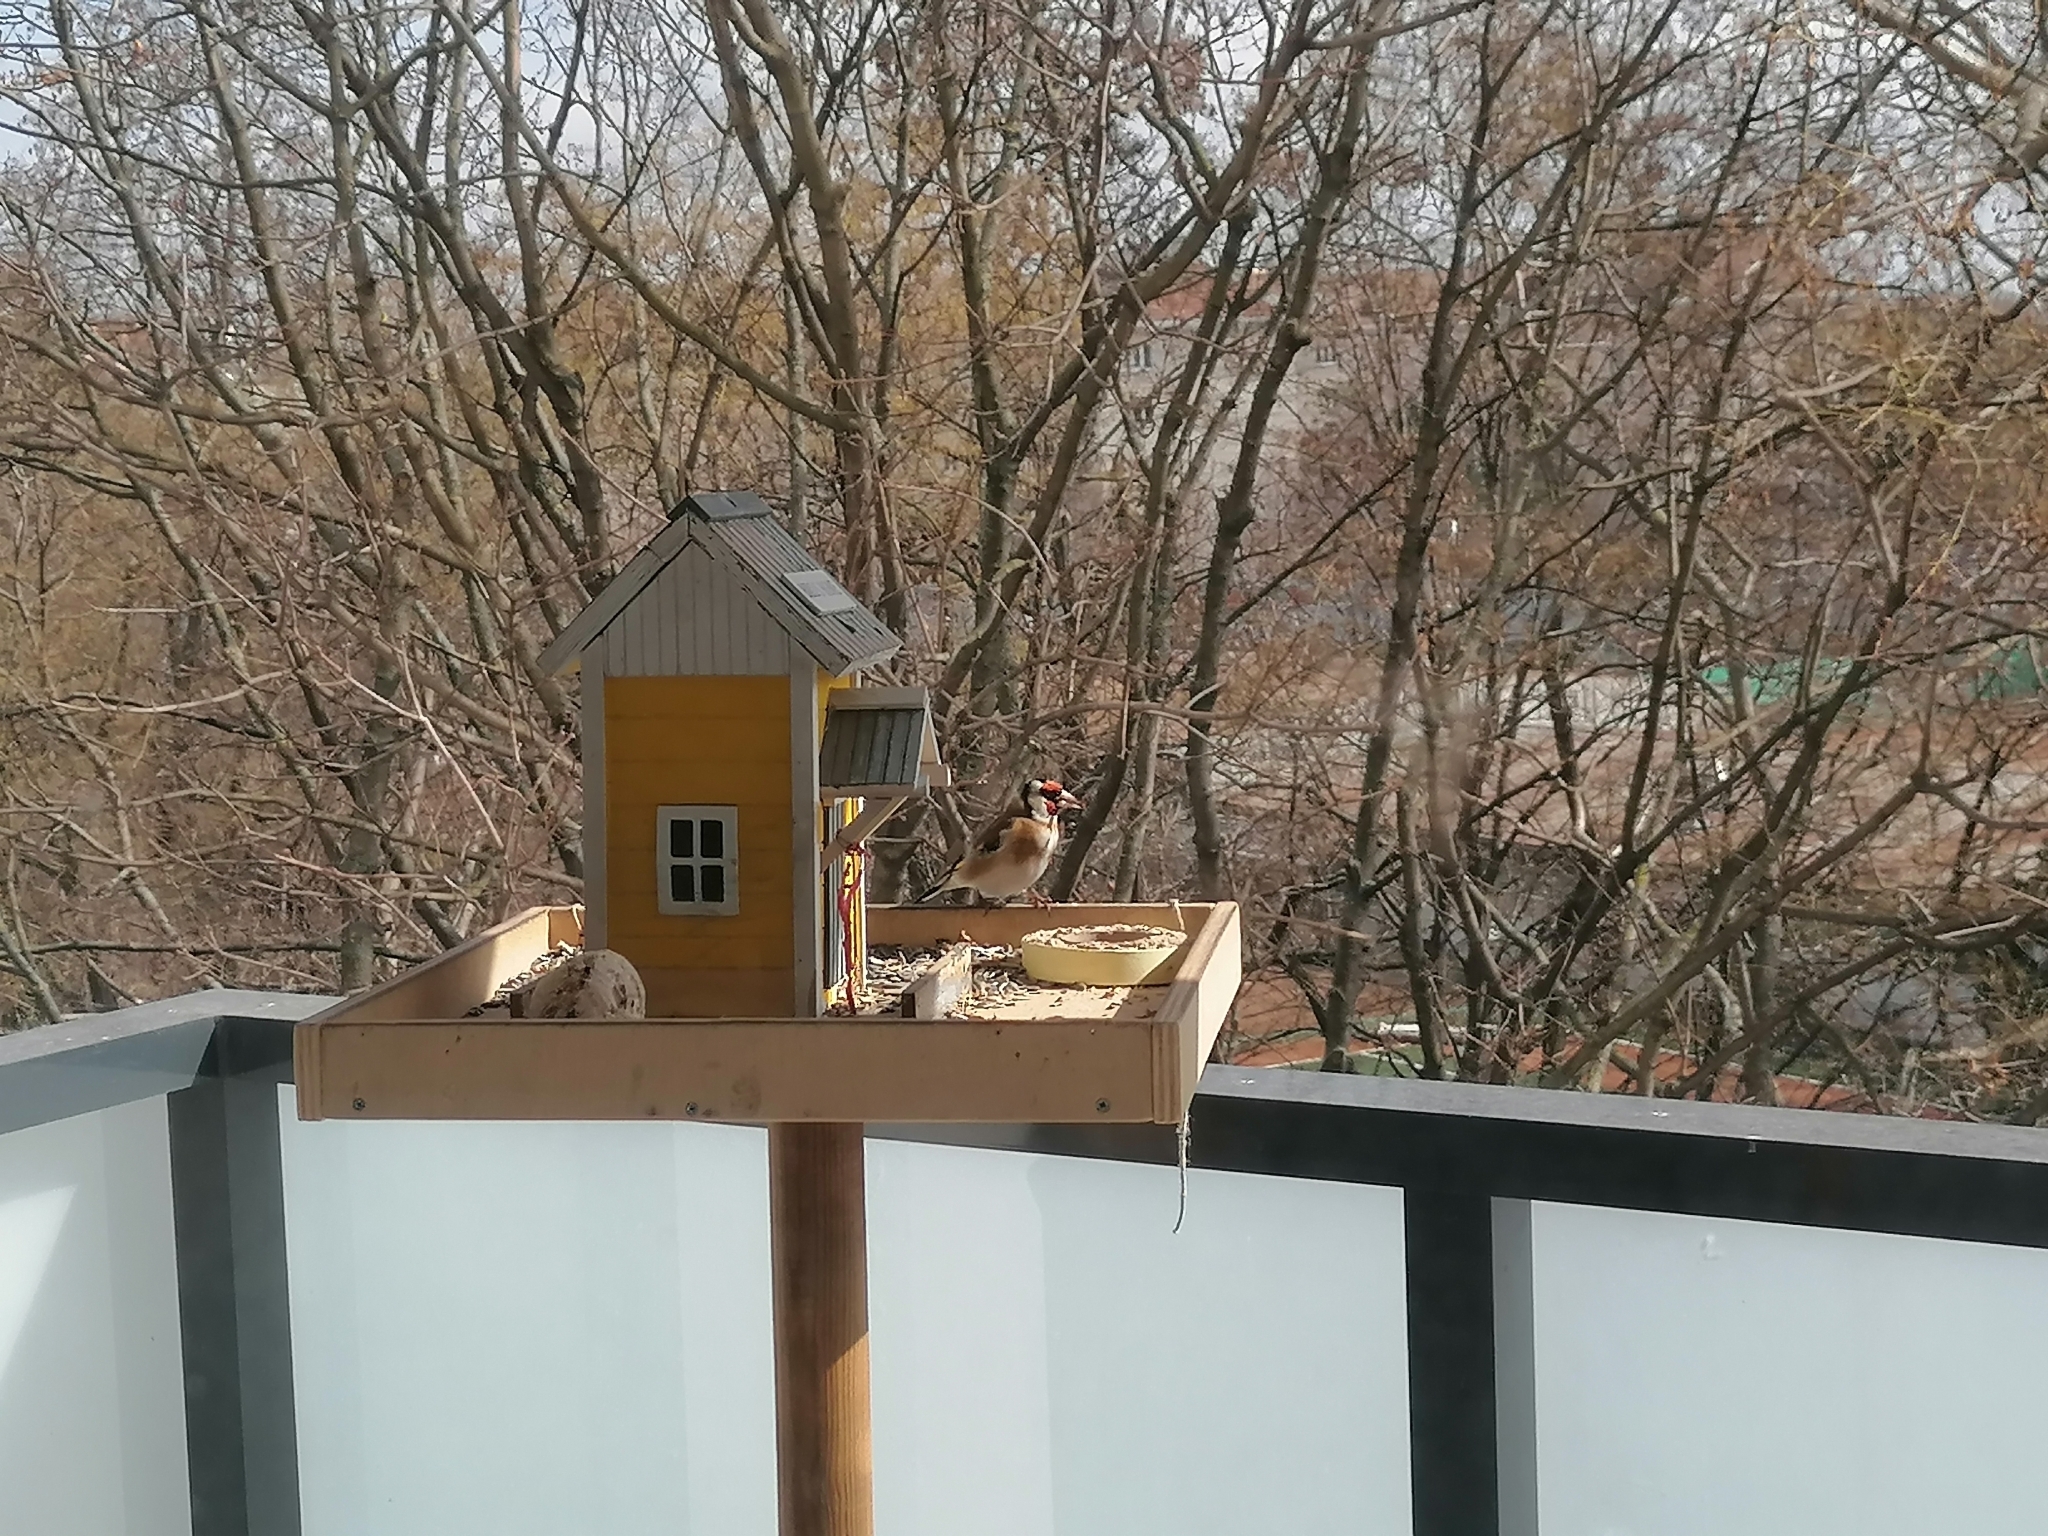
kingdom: Animalia
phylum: Chordata
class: Aves
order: Passeriformes
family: Fringillidae
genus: Carduelis
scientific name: Carduelis carduelis
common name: European goldfinch
